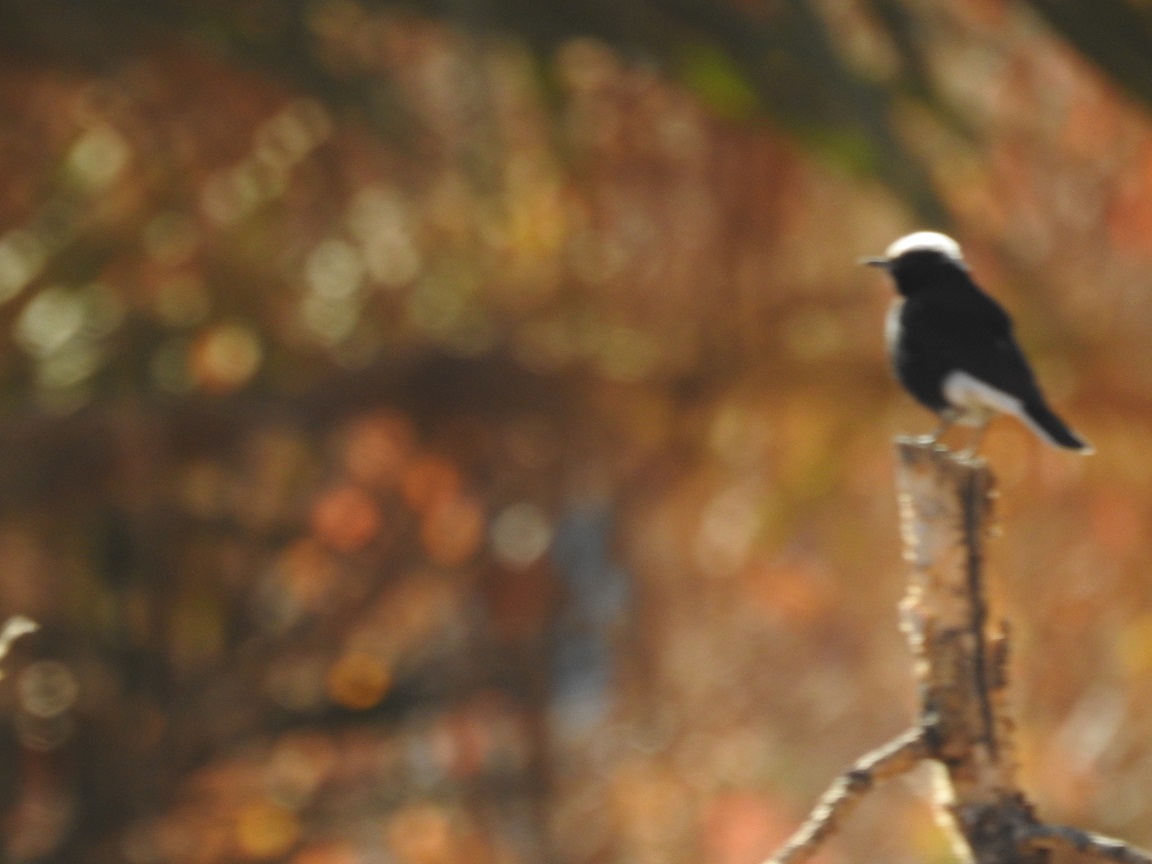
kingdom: Animalia
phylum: Chordata
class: Aves
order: Passeriformes
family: Muscicapidae
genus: Oenanthe
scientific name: Oenanthe leucopyga
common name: White-crowned wheatear
